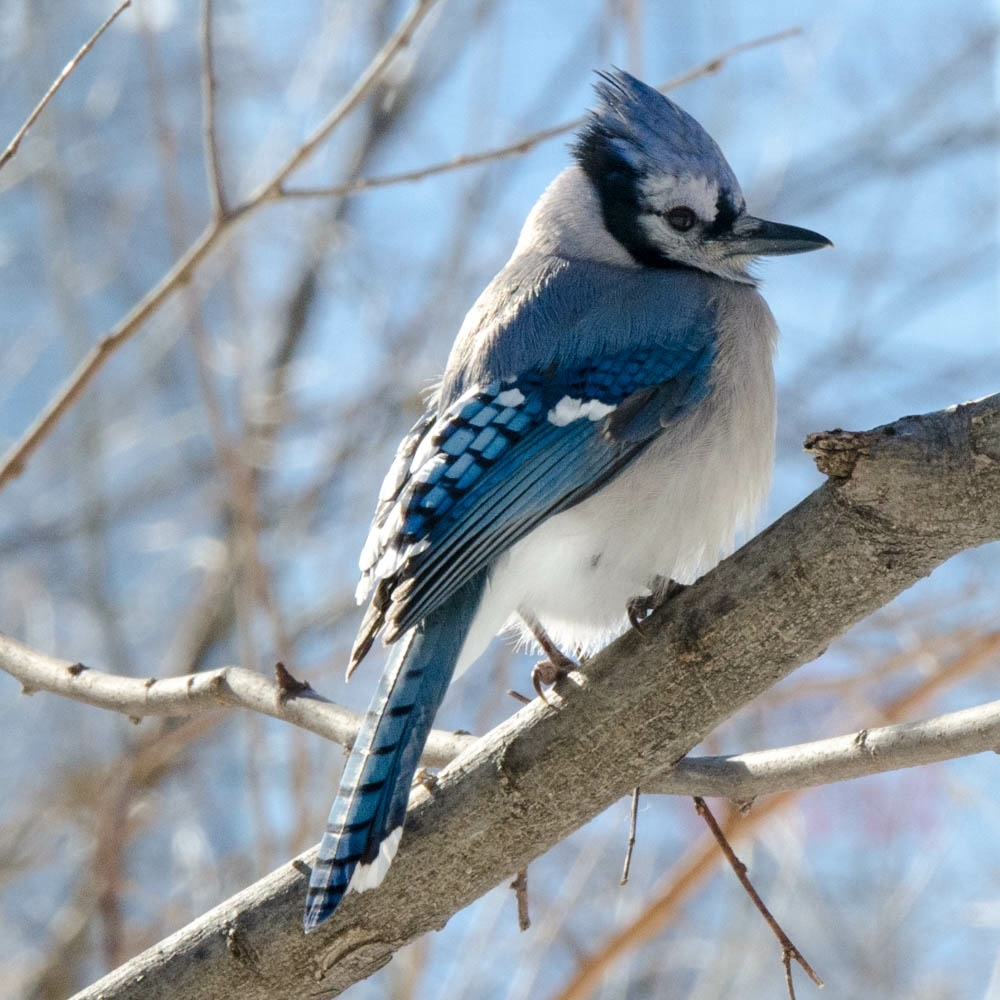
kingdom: Animalia
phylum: Chordata
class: Aves
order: Passeriformes
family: Corvidae
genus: Cyanocitta
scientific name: Cyanocitta cristata
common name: Blue jay
